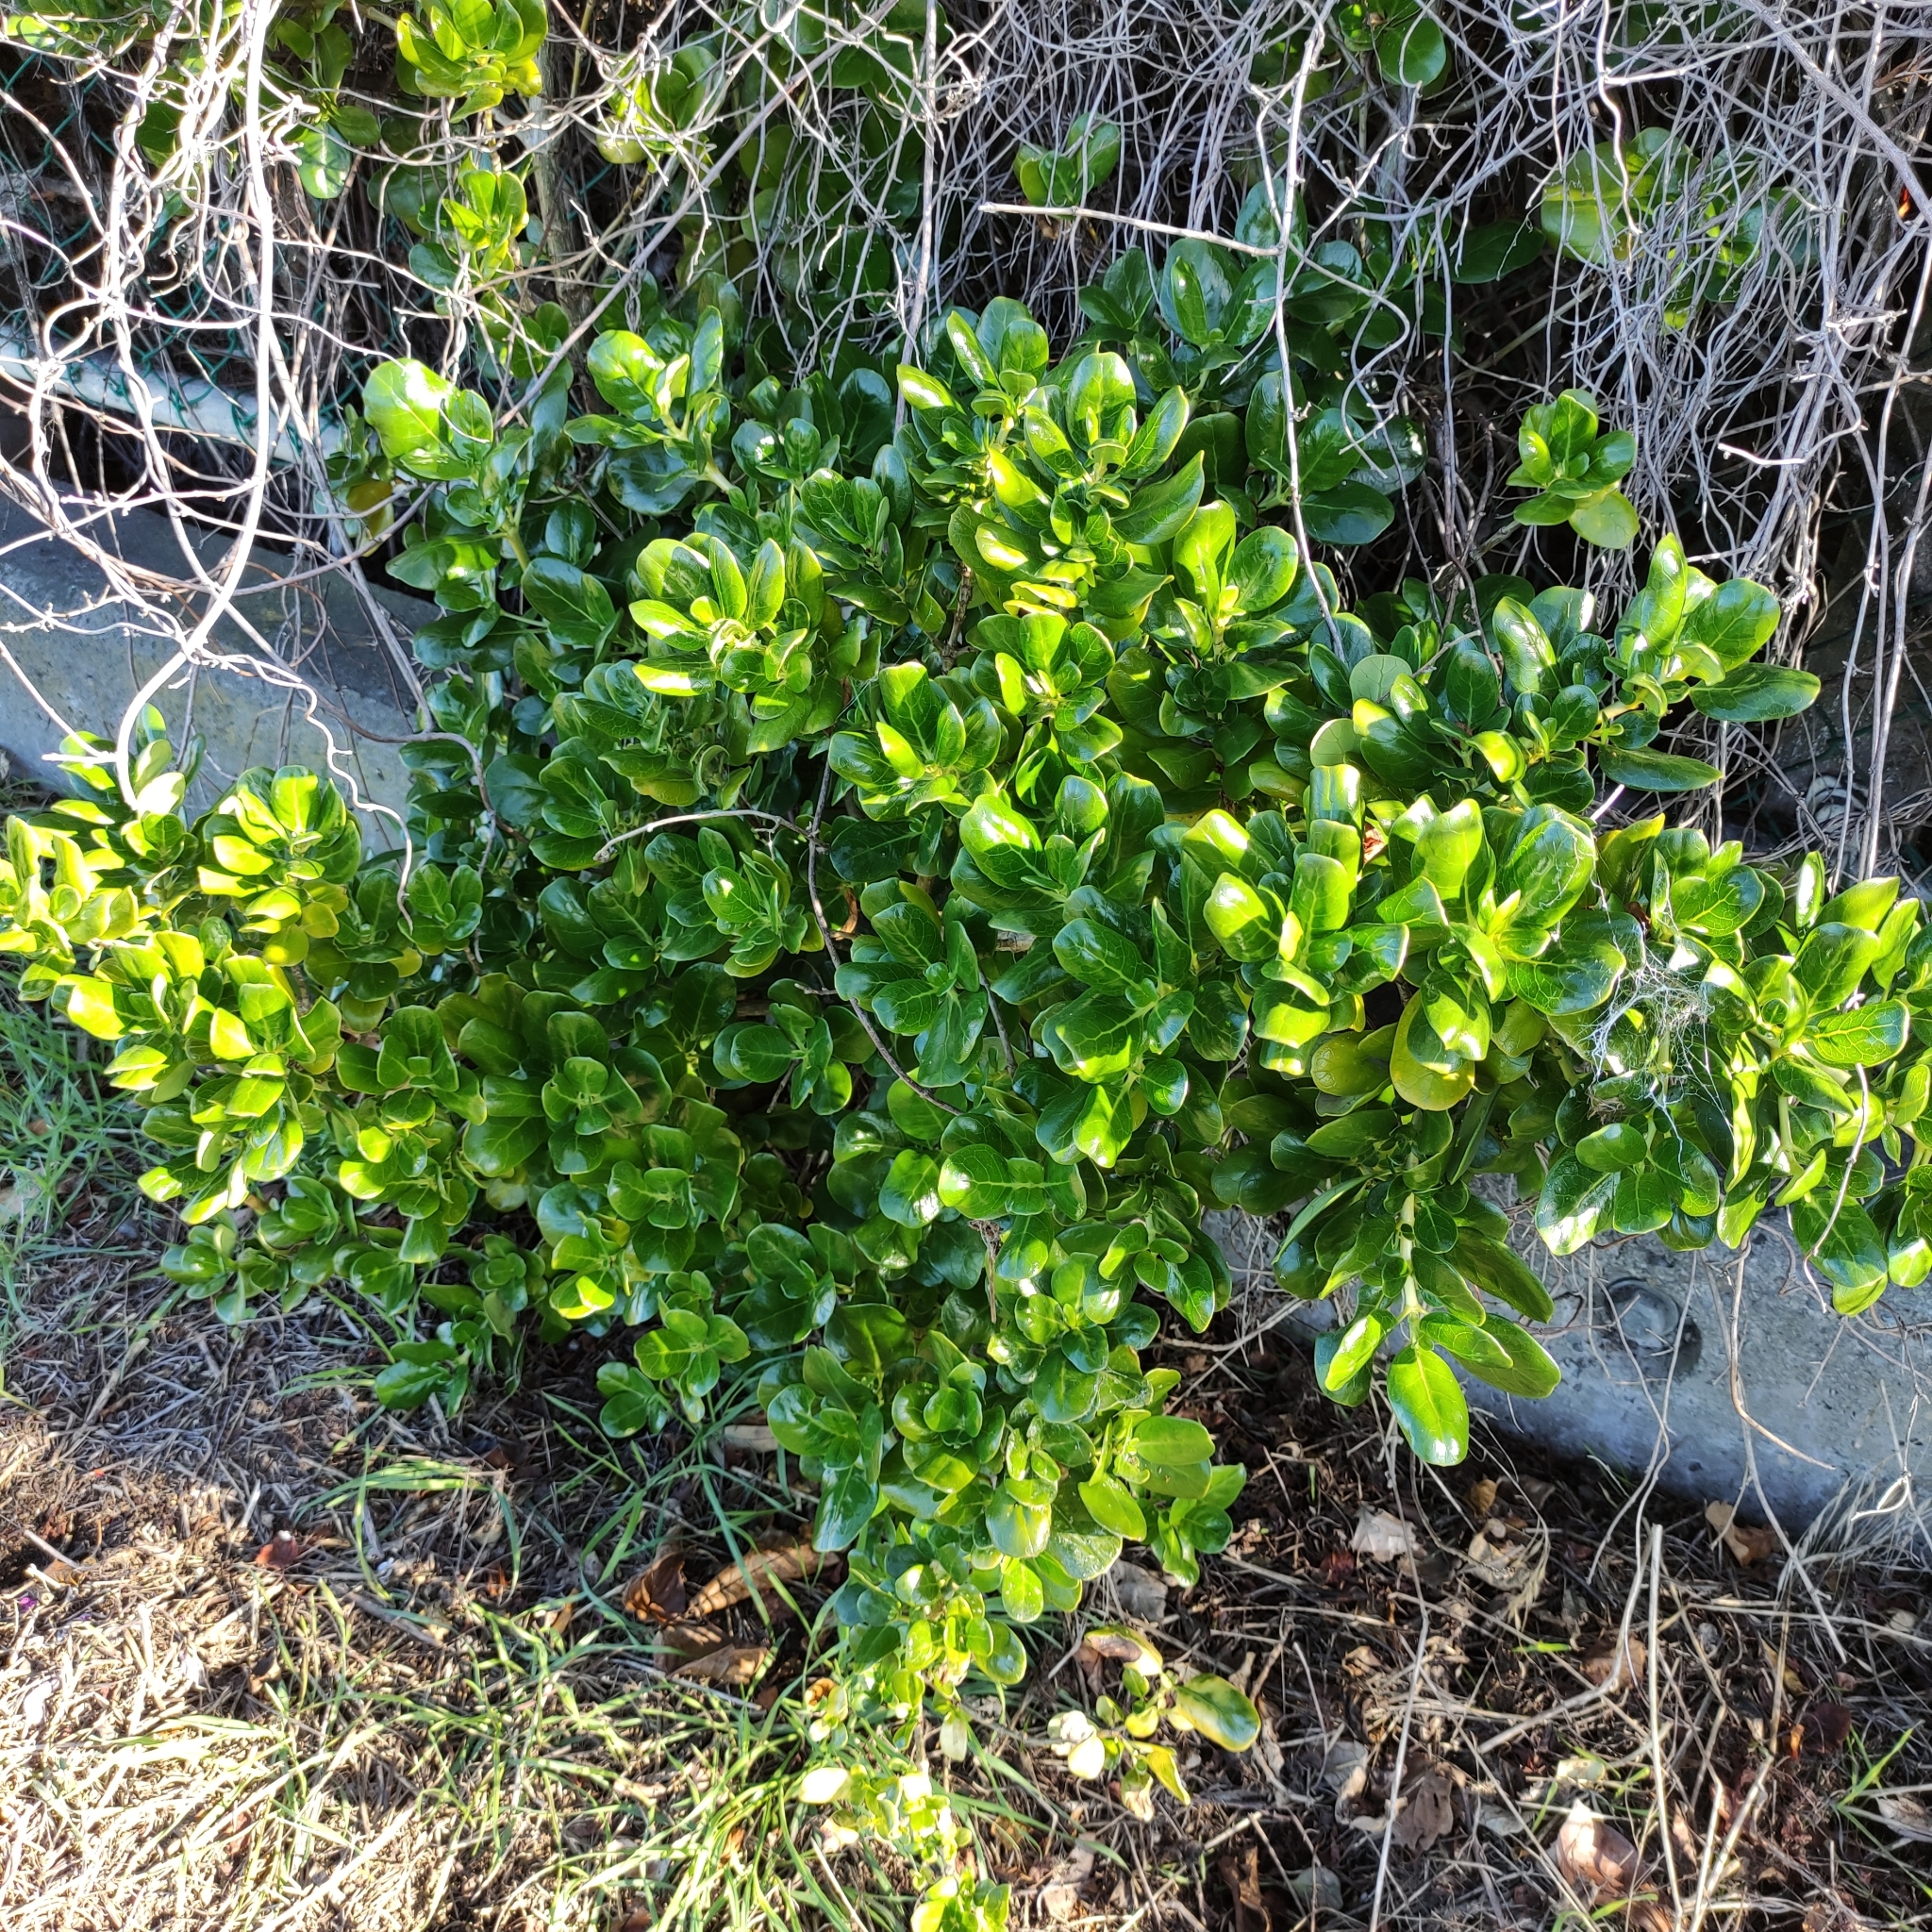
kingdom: Plantae
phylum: Tracheophyta
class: Magnoliopsida
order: Gentianales
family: Rubiaceae
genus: Coprosma
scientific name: Coprosma repens
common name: Tree bedstraw
